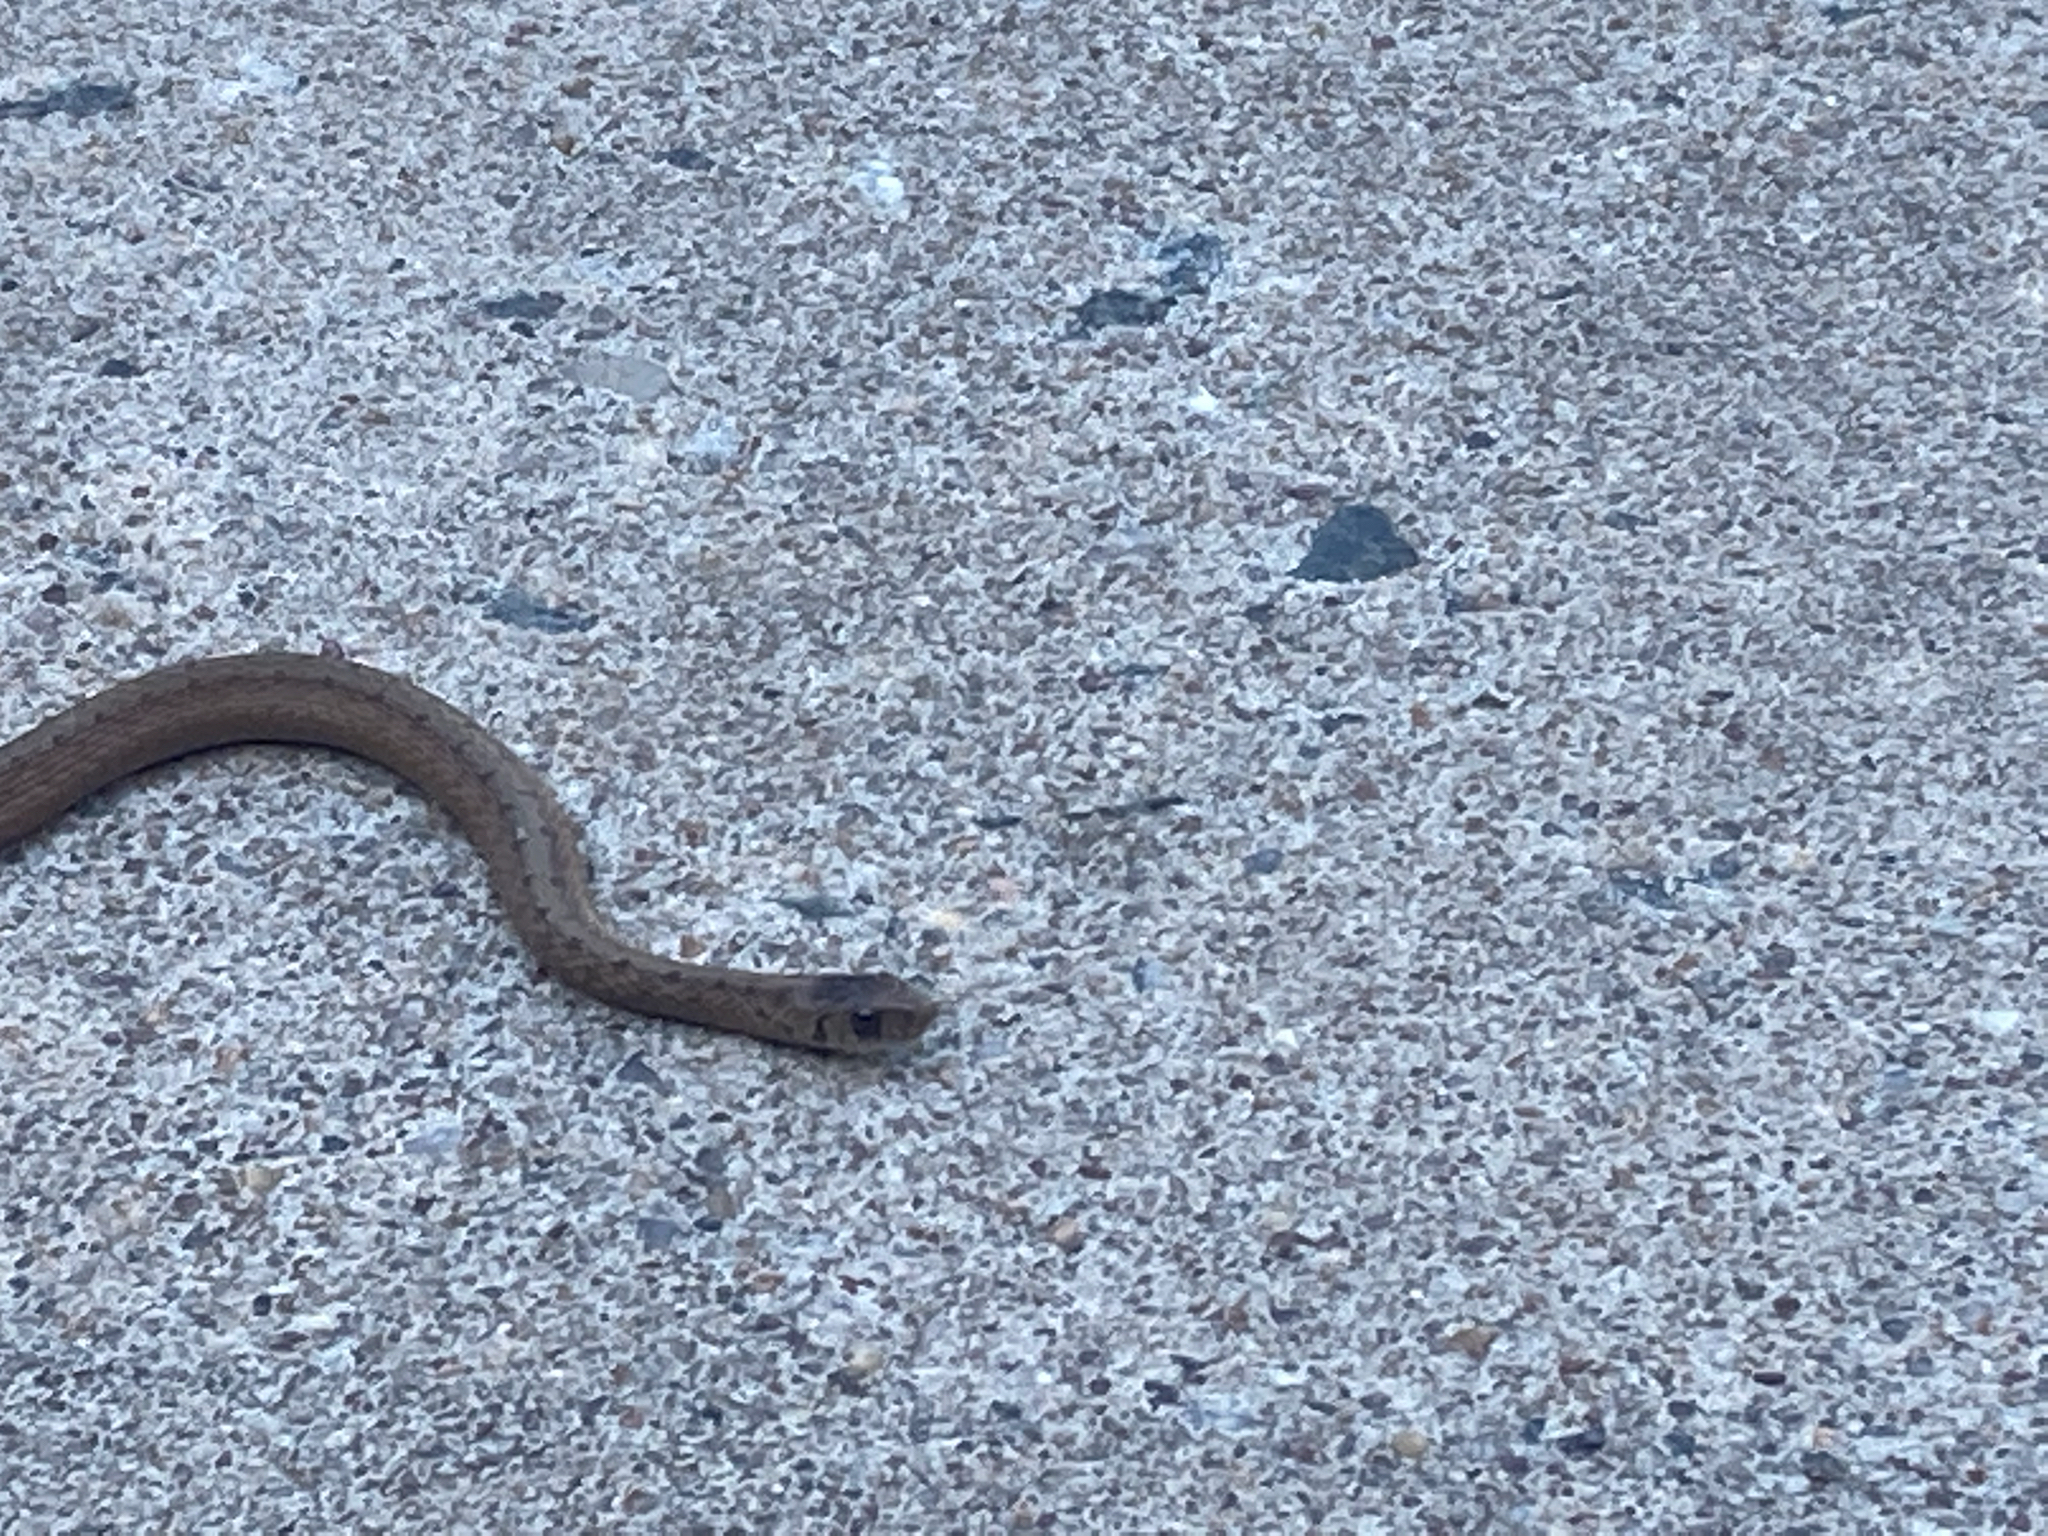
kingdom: Animalia
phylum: Chordata
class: Squamata
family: Colubridae
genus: Storeria
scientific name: Storeria dekayi
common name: (dekay’s) brown snake
